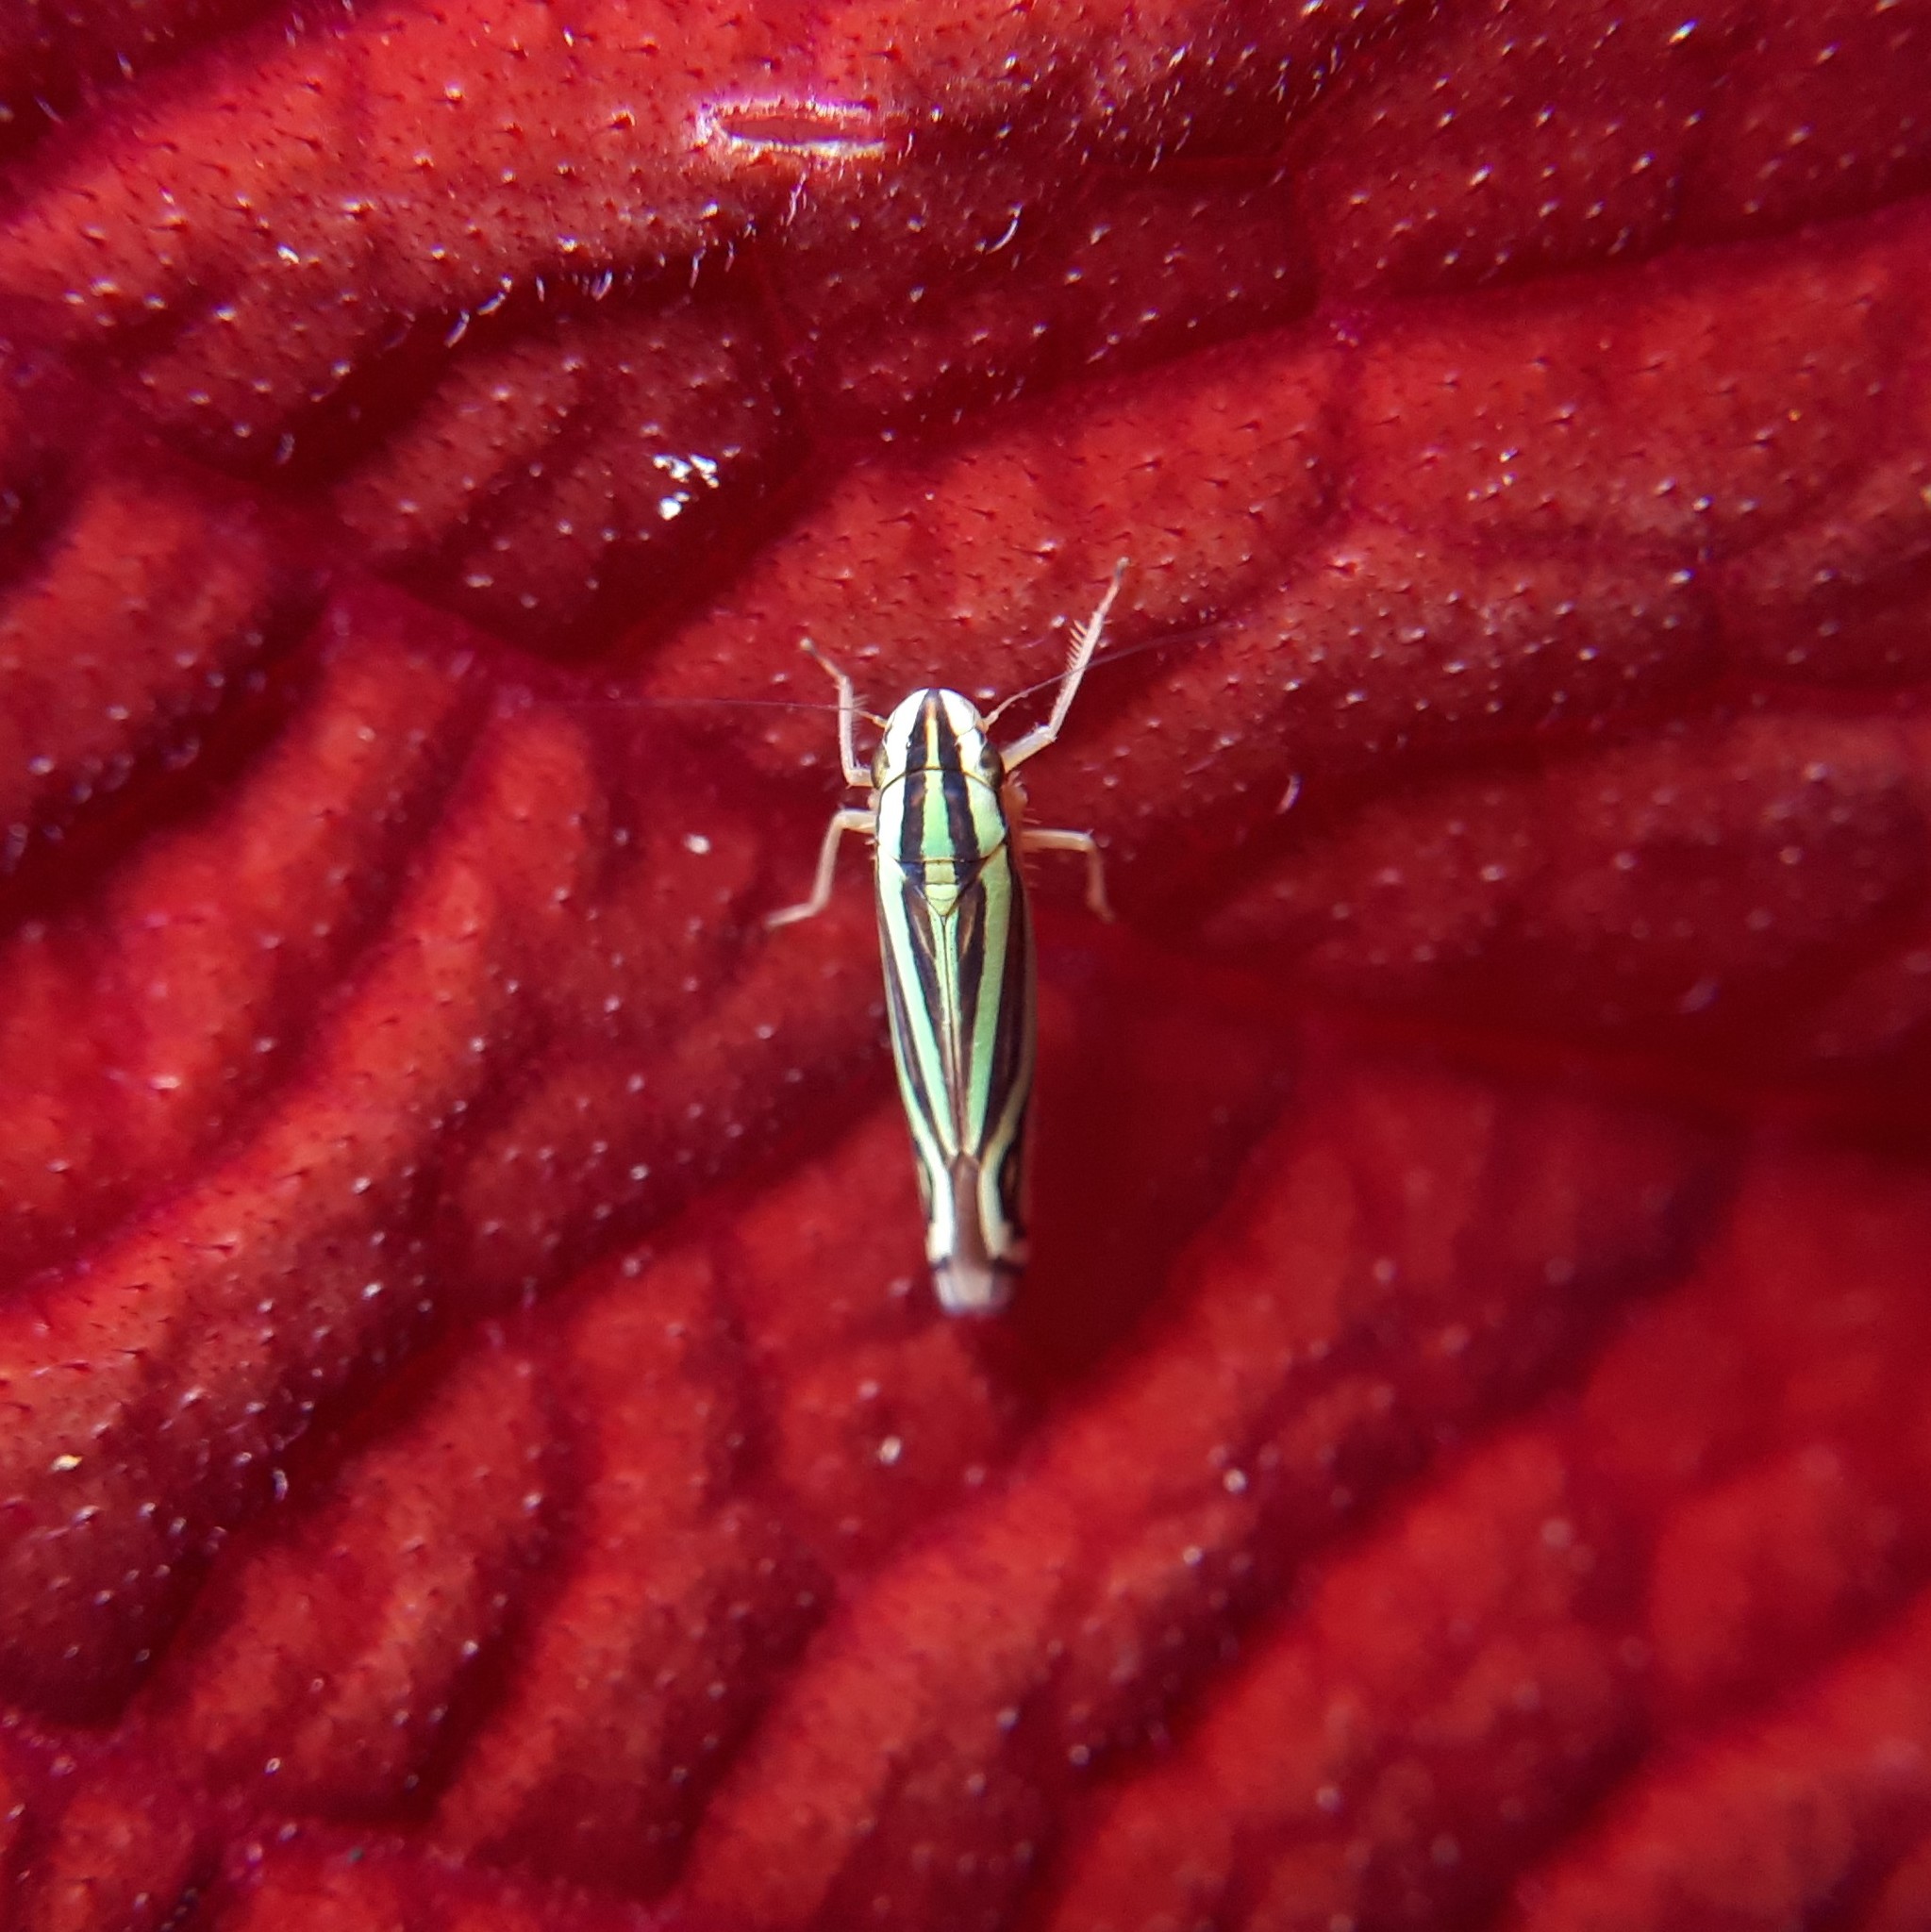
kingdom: Animalia
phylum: Arthropoda
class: Insecta
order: Hemiptera
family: Cicadellidae
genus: Sibovia
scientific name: Sibovia sagata
